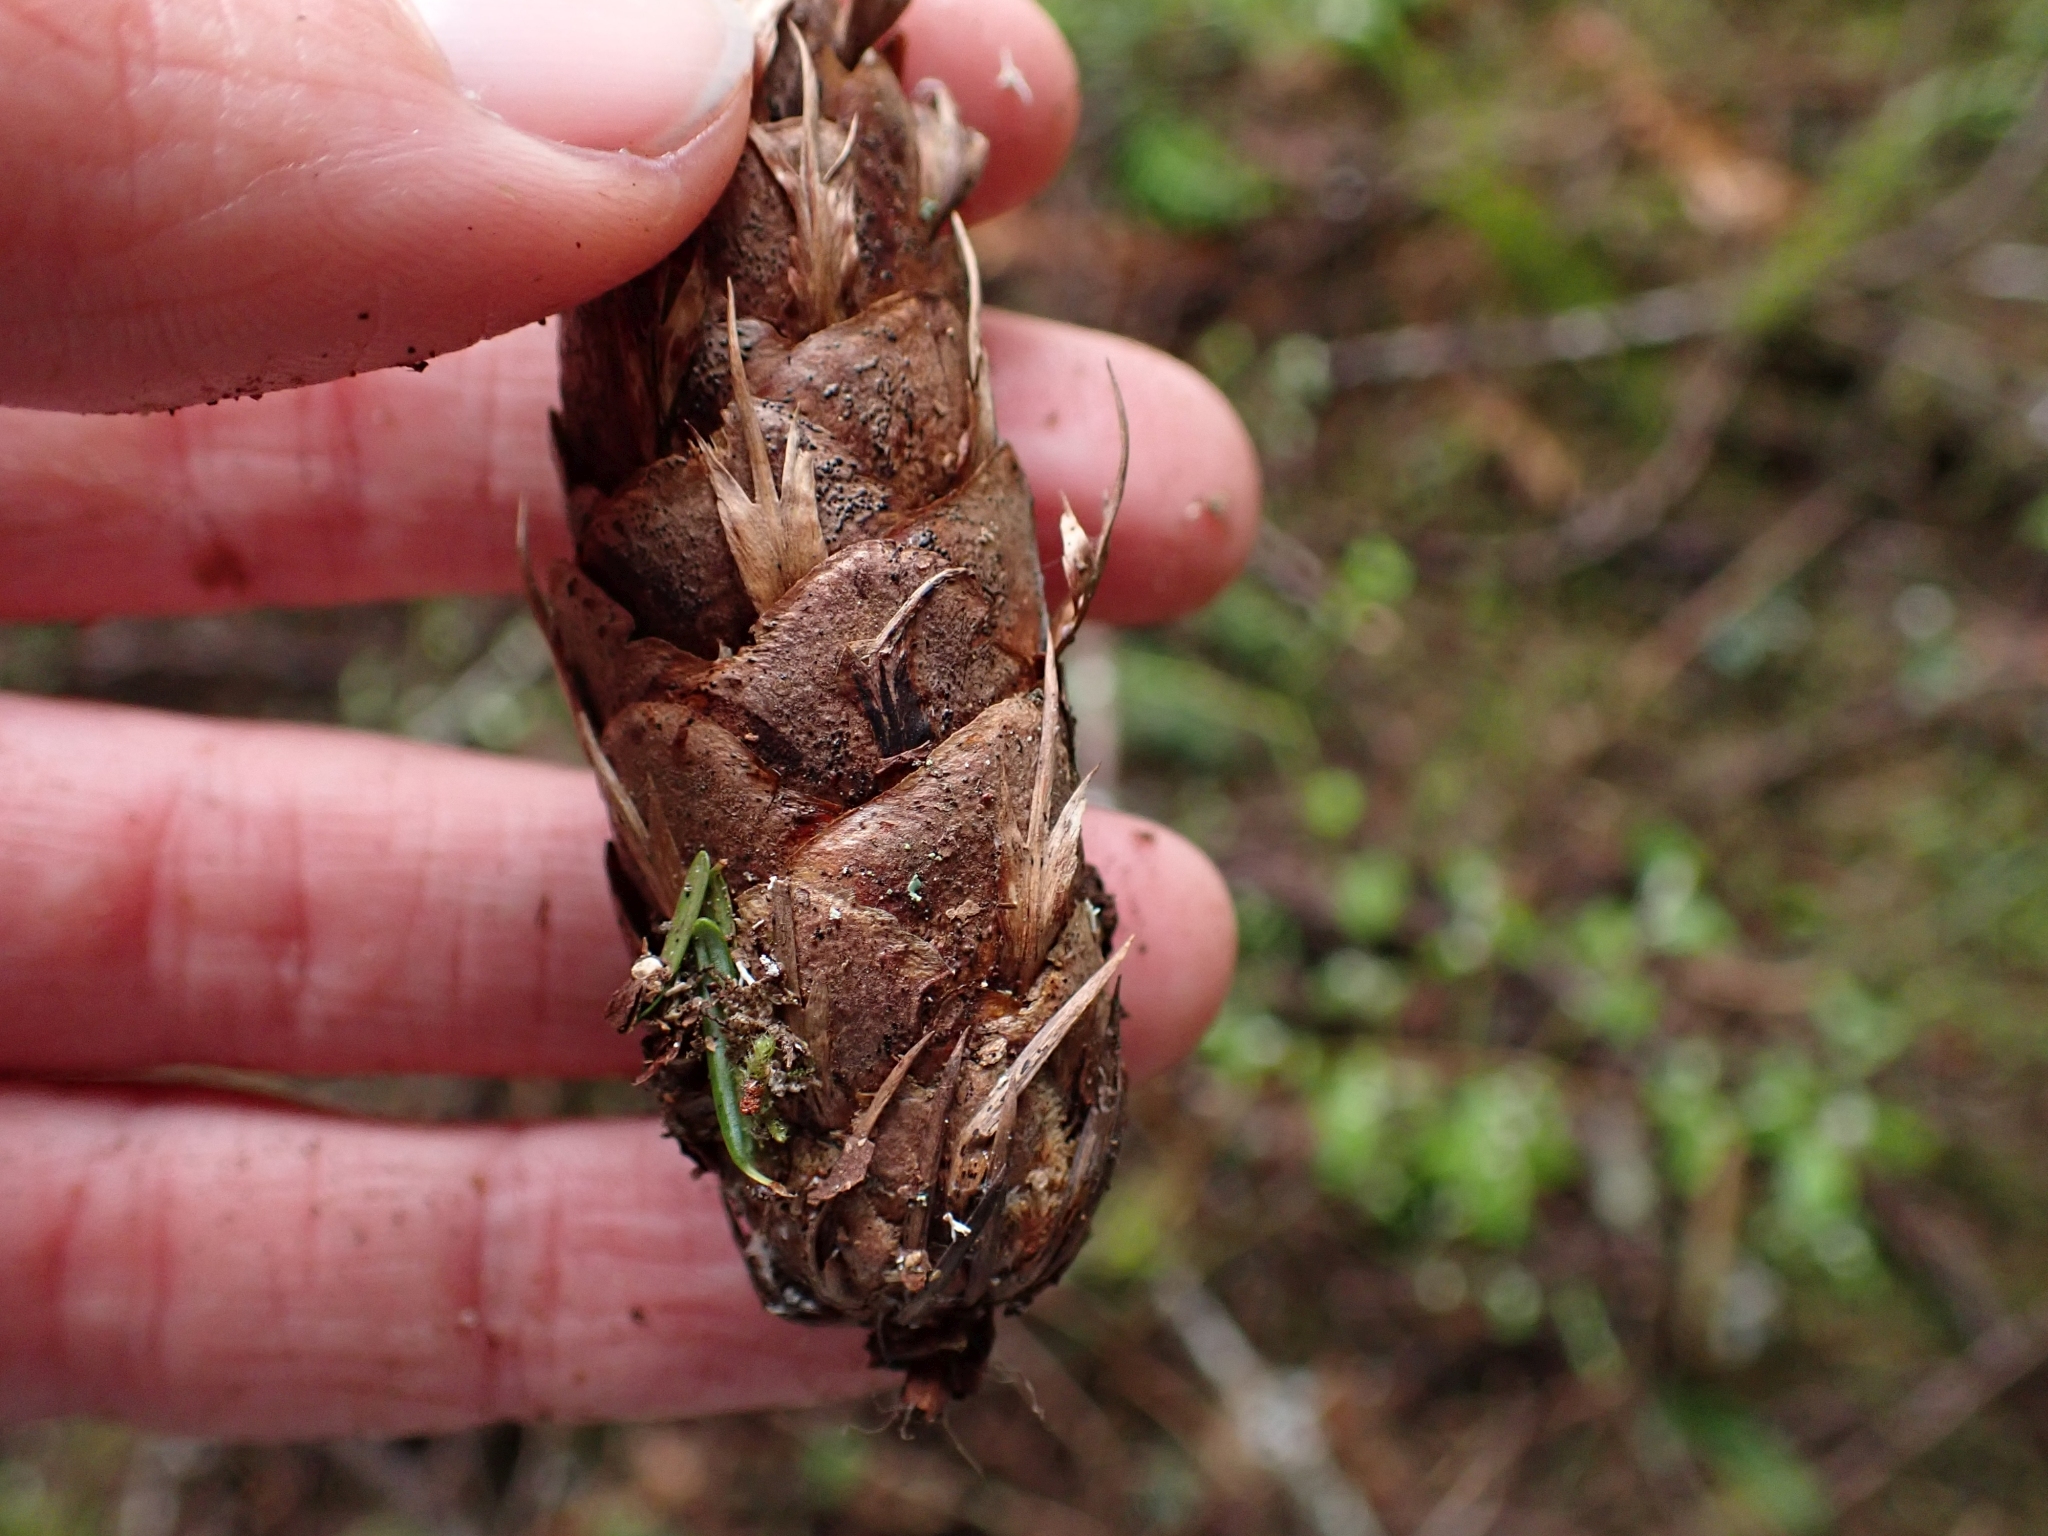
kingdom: Plantae
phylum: Tracheophyta
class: Pinopsida
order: Pinales
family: Pinaceae
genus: Pseudotsuga
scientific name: Pseudotsuga menziesii
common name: Douglas fir
